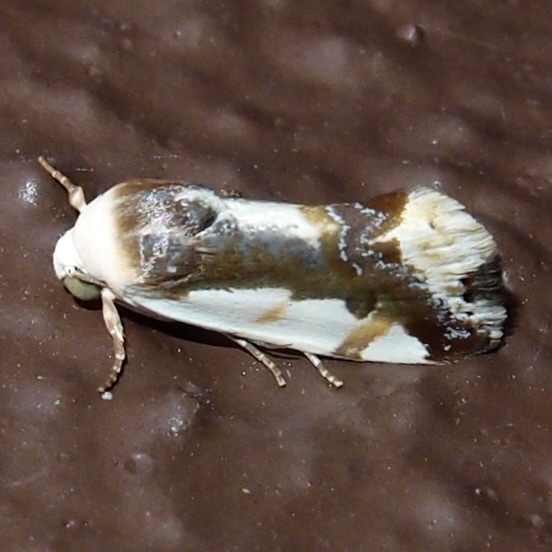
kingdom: Animalia
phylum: Arthropoda
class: Insecta
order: Lepidoptera
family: Noctuidae
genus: Acontia
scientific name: Acontia Tarache cora
